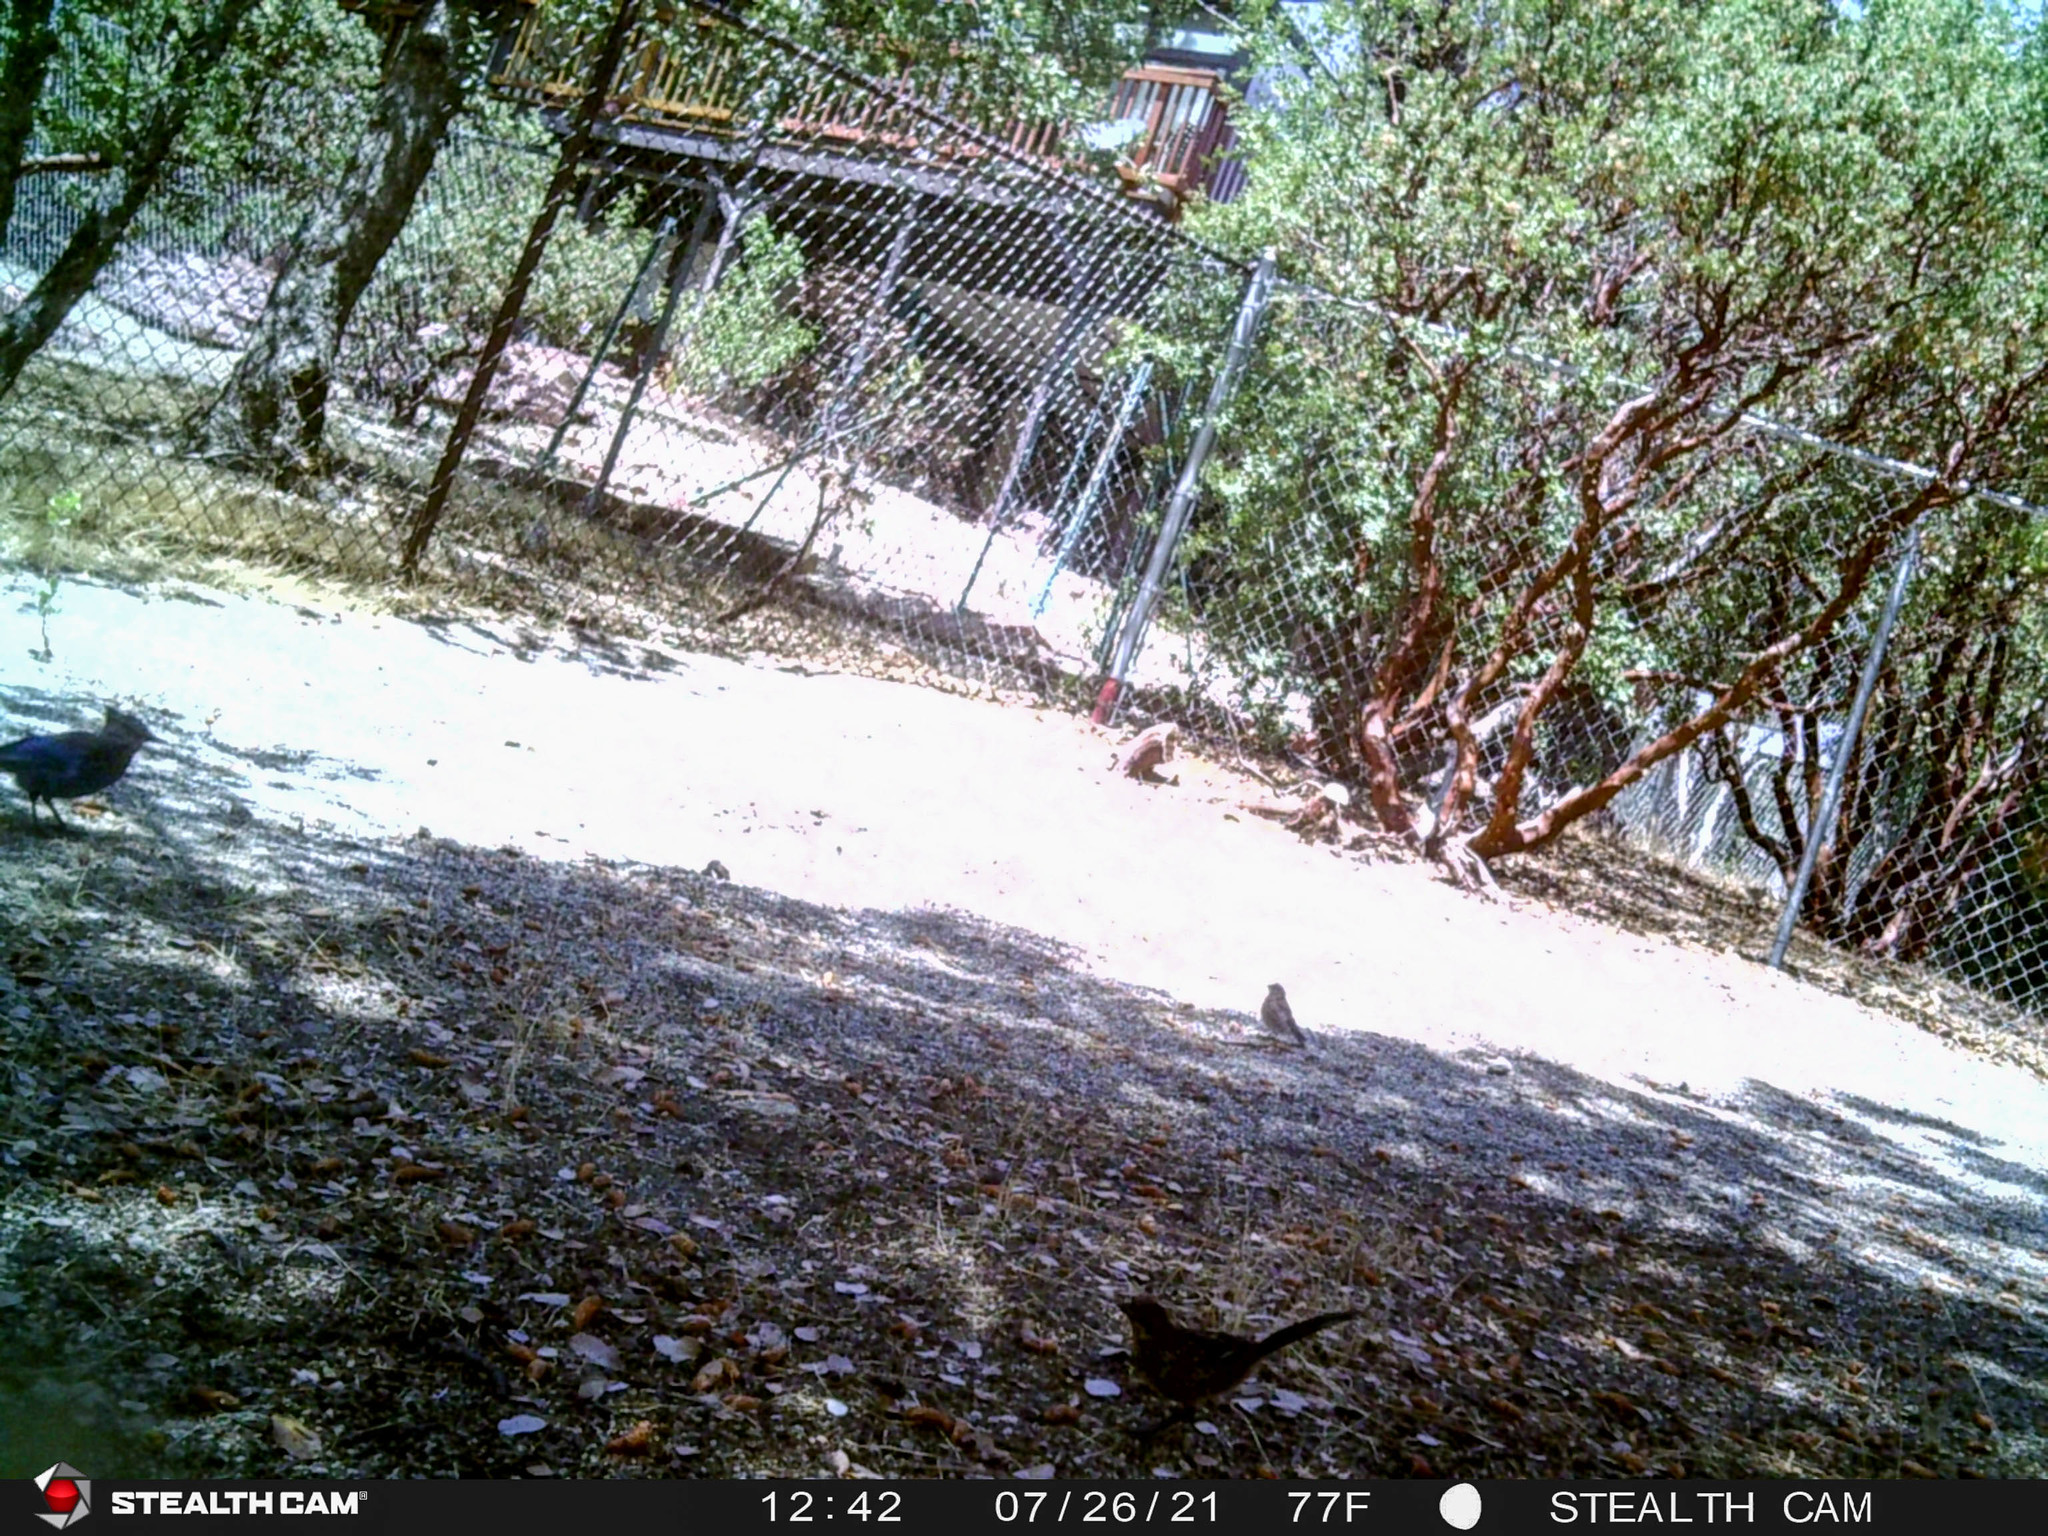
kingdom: Animalia
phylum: Chordata
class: Aves
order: Passeriformes
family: Passerellidae
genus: Pipilo
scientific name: Pipilo maculatus
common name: Spotted towhee
